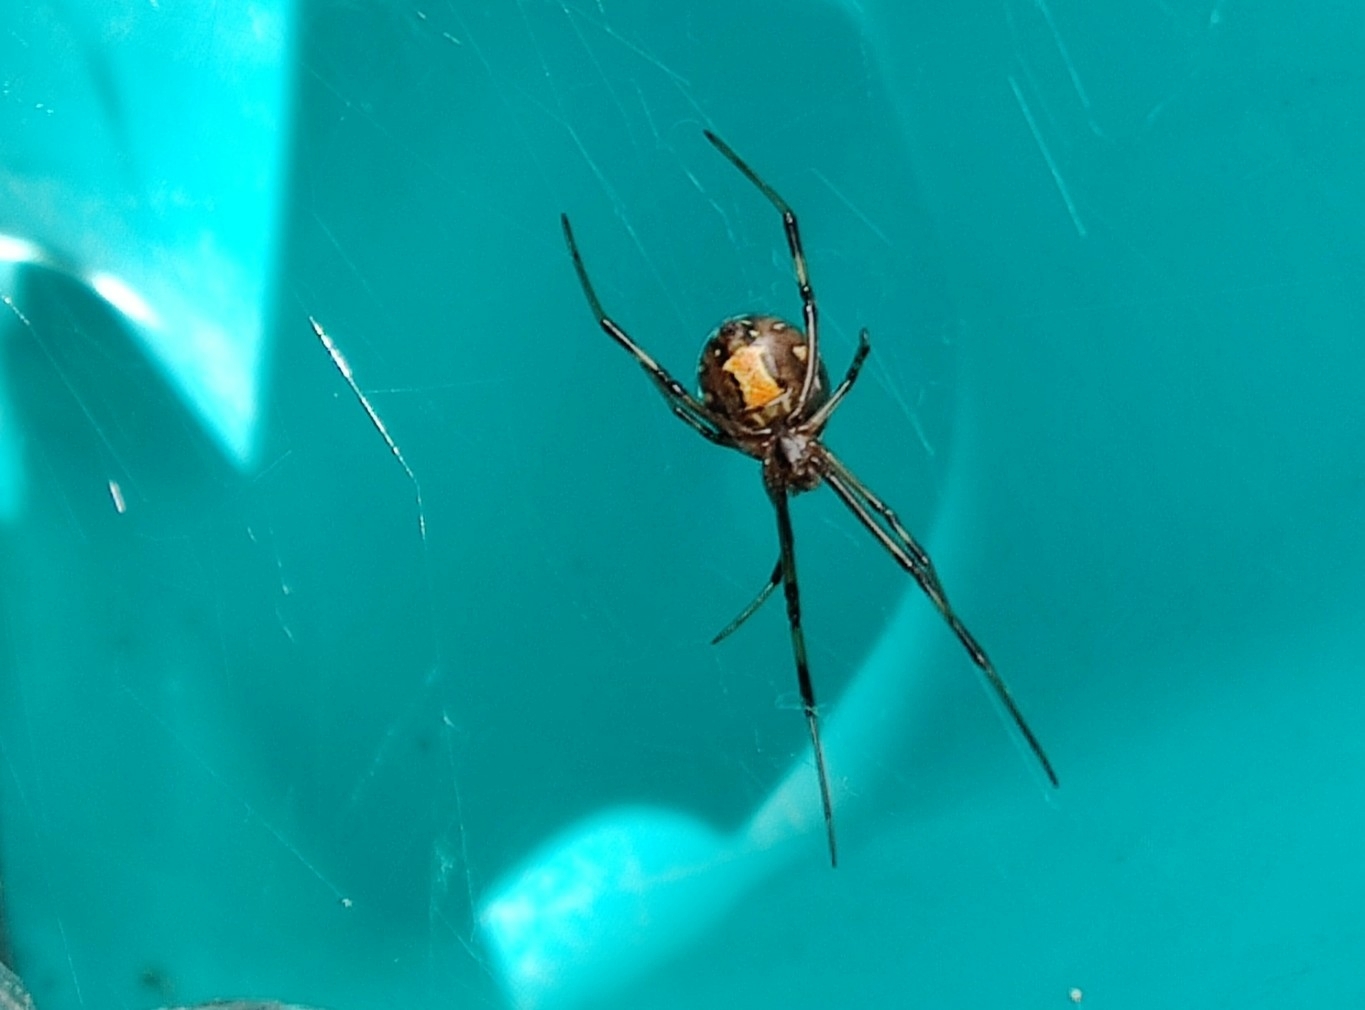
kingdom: Animalia
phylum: Arthropoda
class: Arachnida
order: Araneae
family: Theridiidae
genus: Latrodectus
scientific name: Latrodectus hesperus
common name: Western black widow
